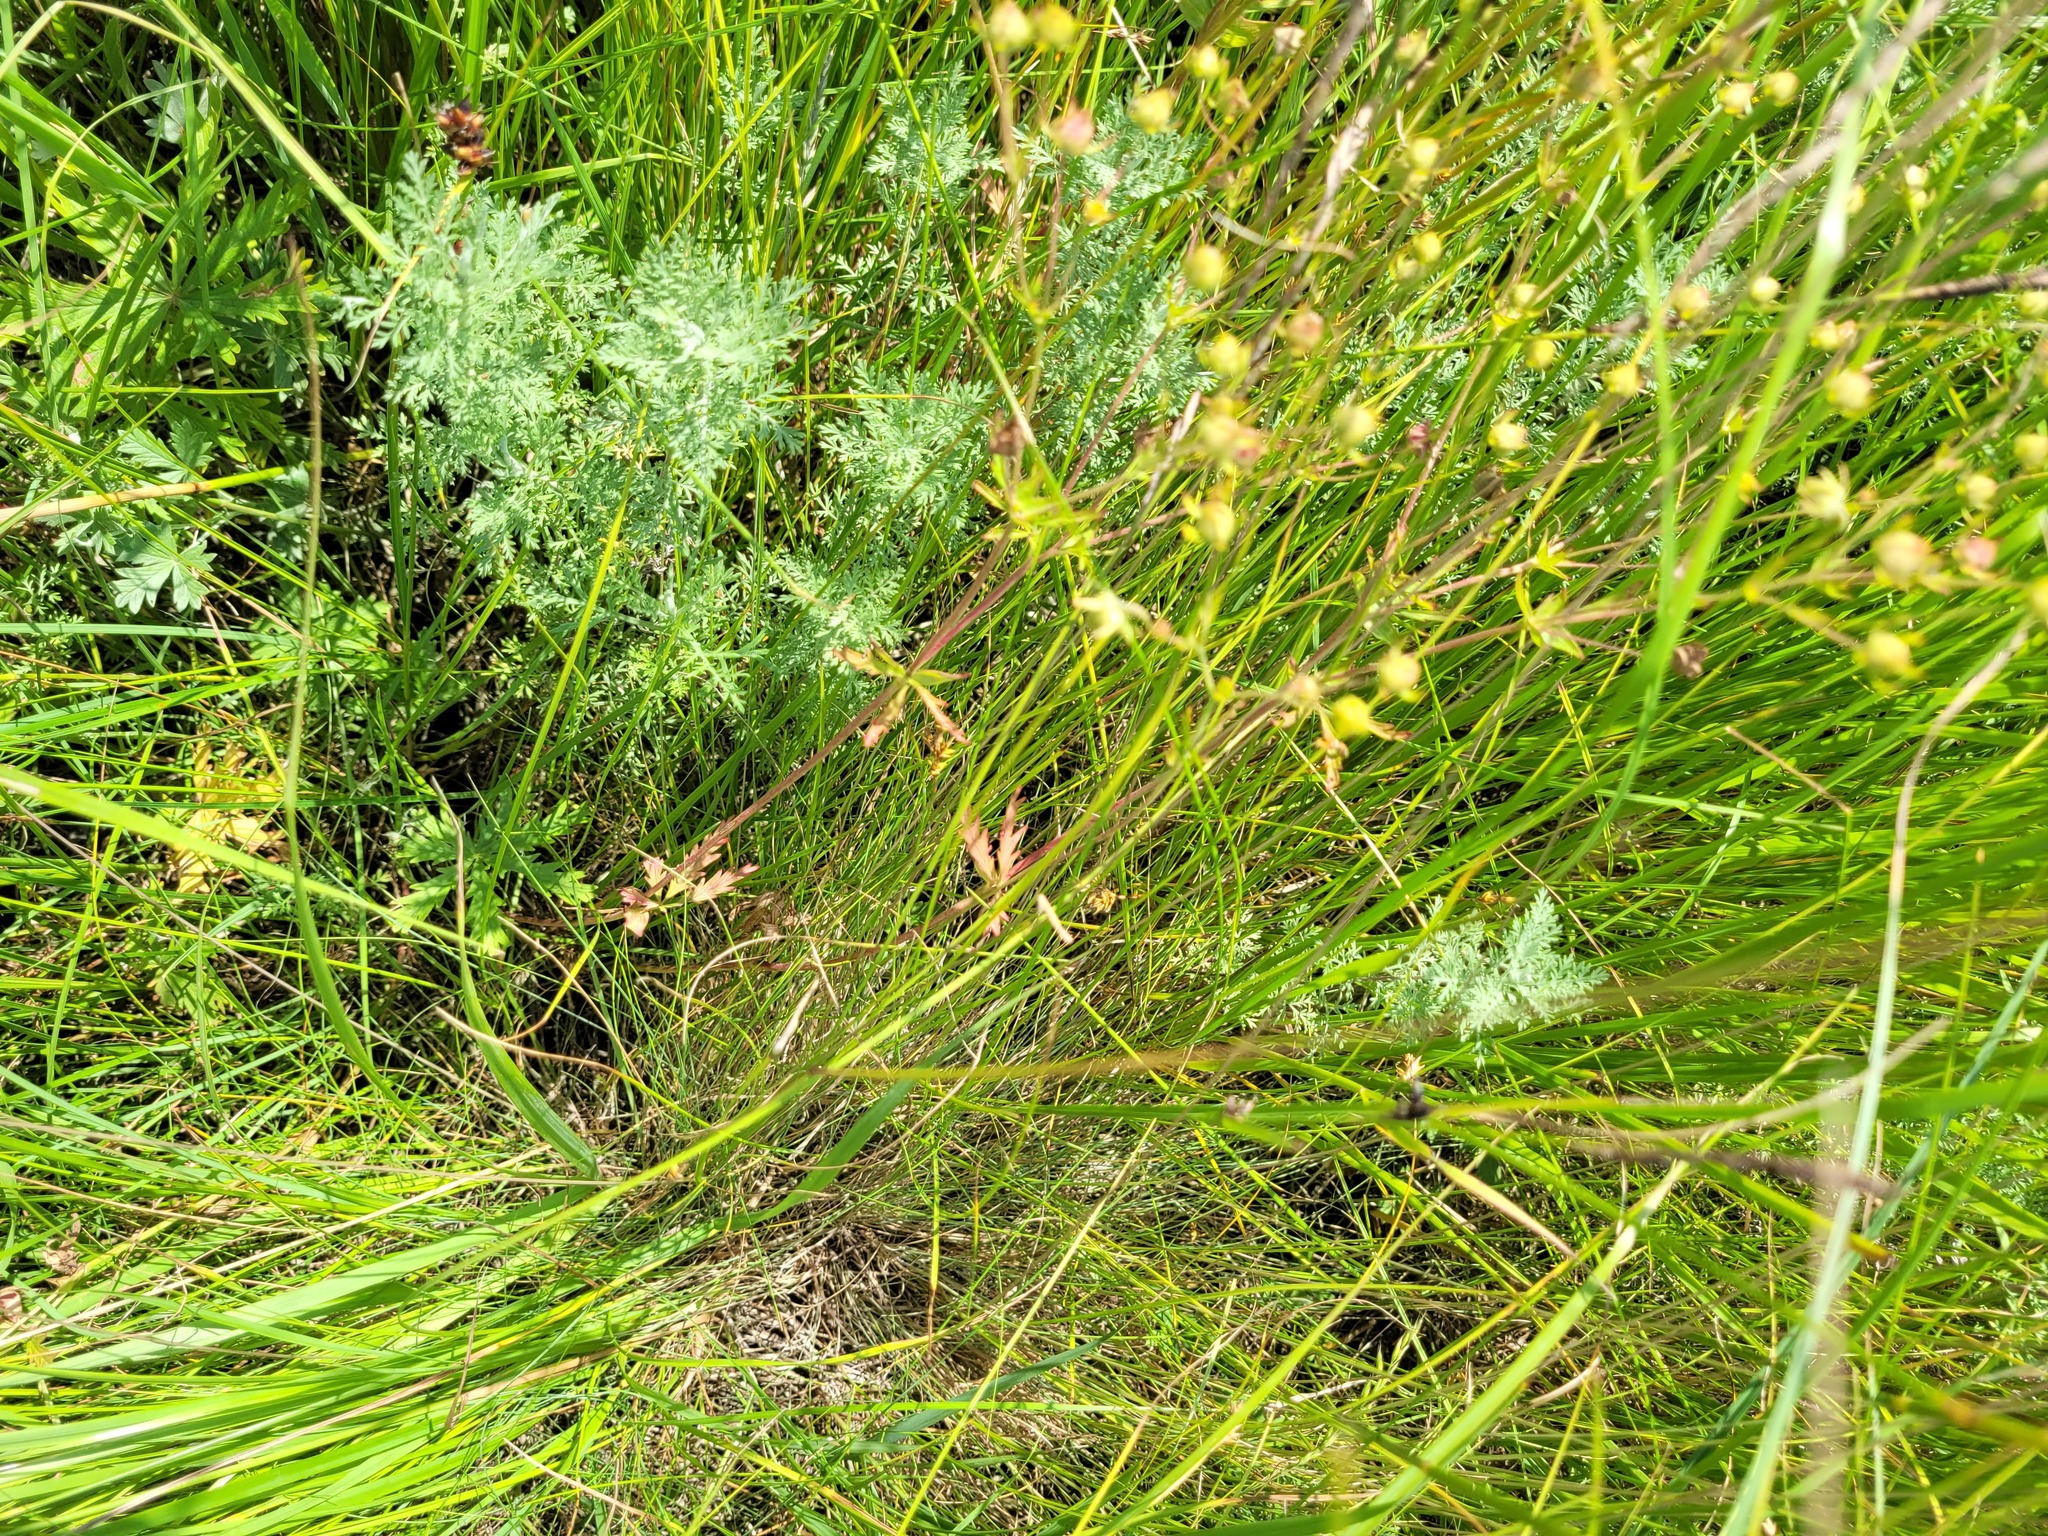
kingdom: Plantae
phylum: Tracheophyta
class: Magnoliopsida
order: Rosales
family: Rosaceae
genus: Potentilla
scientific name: Potentilla longipes
